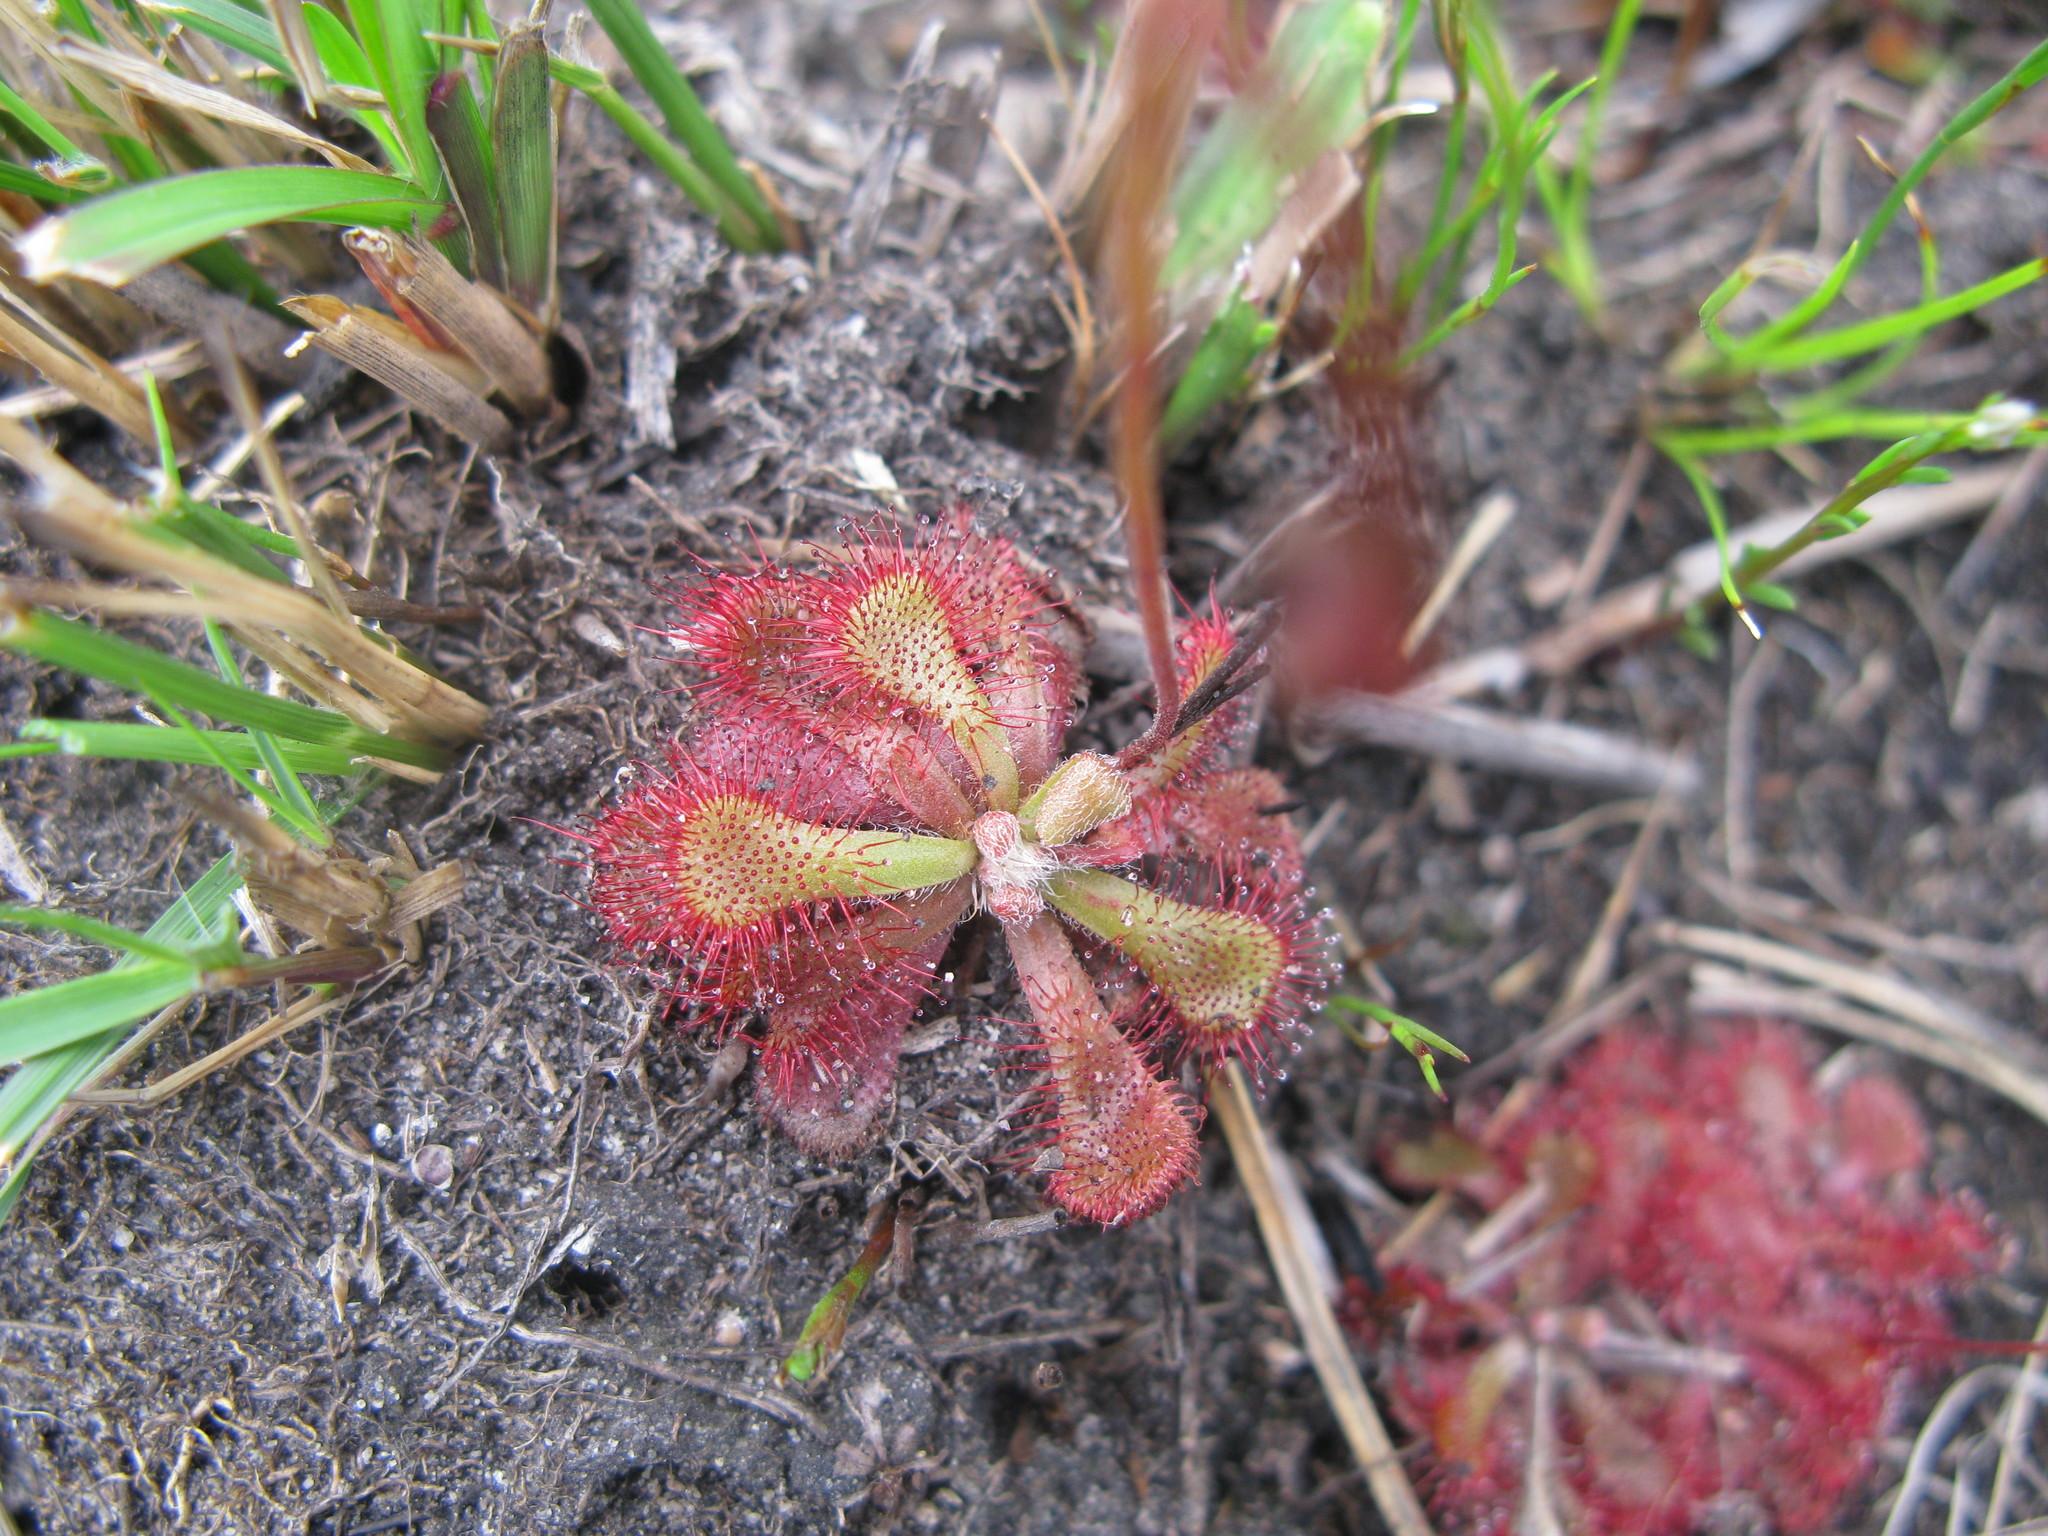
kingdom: Plantae
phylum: Tracheophyta
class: Magnoliopsida
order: Caryophyllales
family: Droseraceae
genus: Drosera
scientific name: Drosera natalensis
